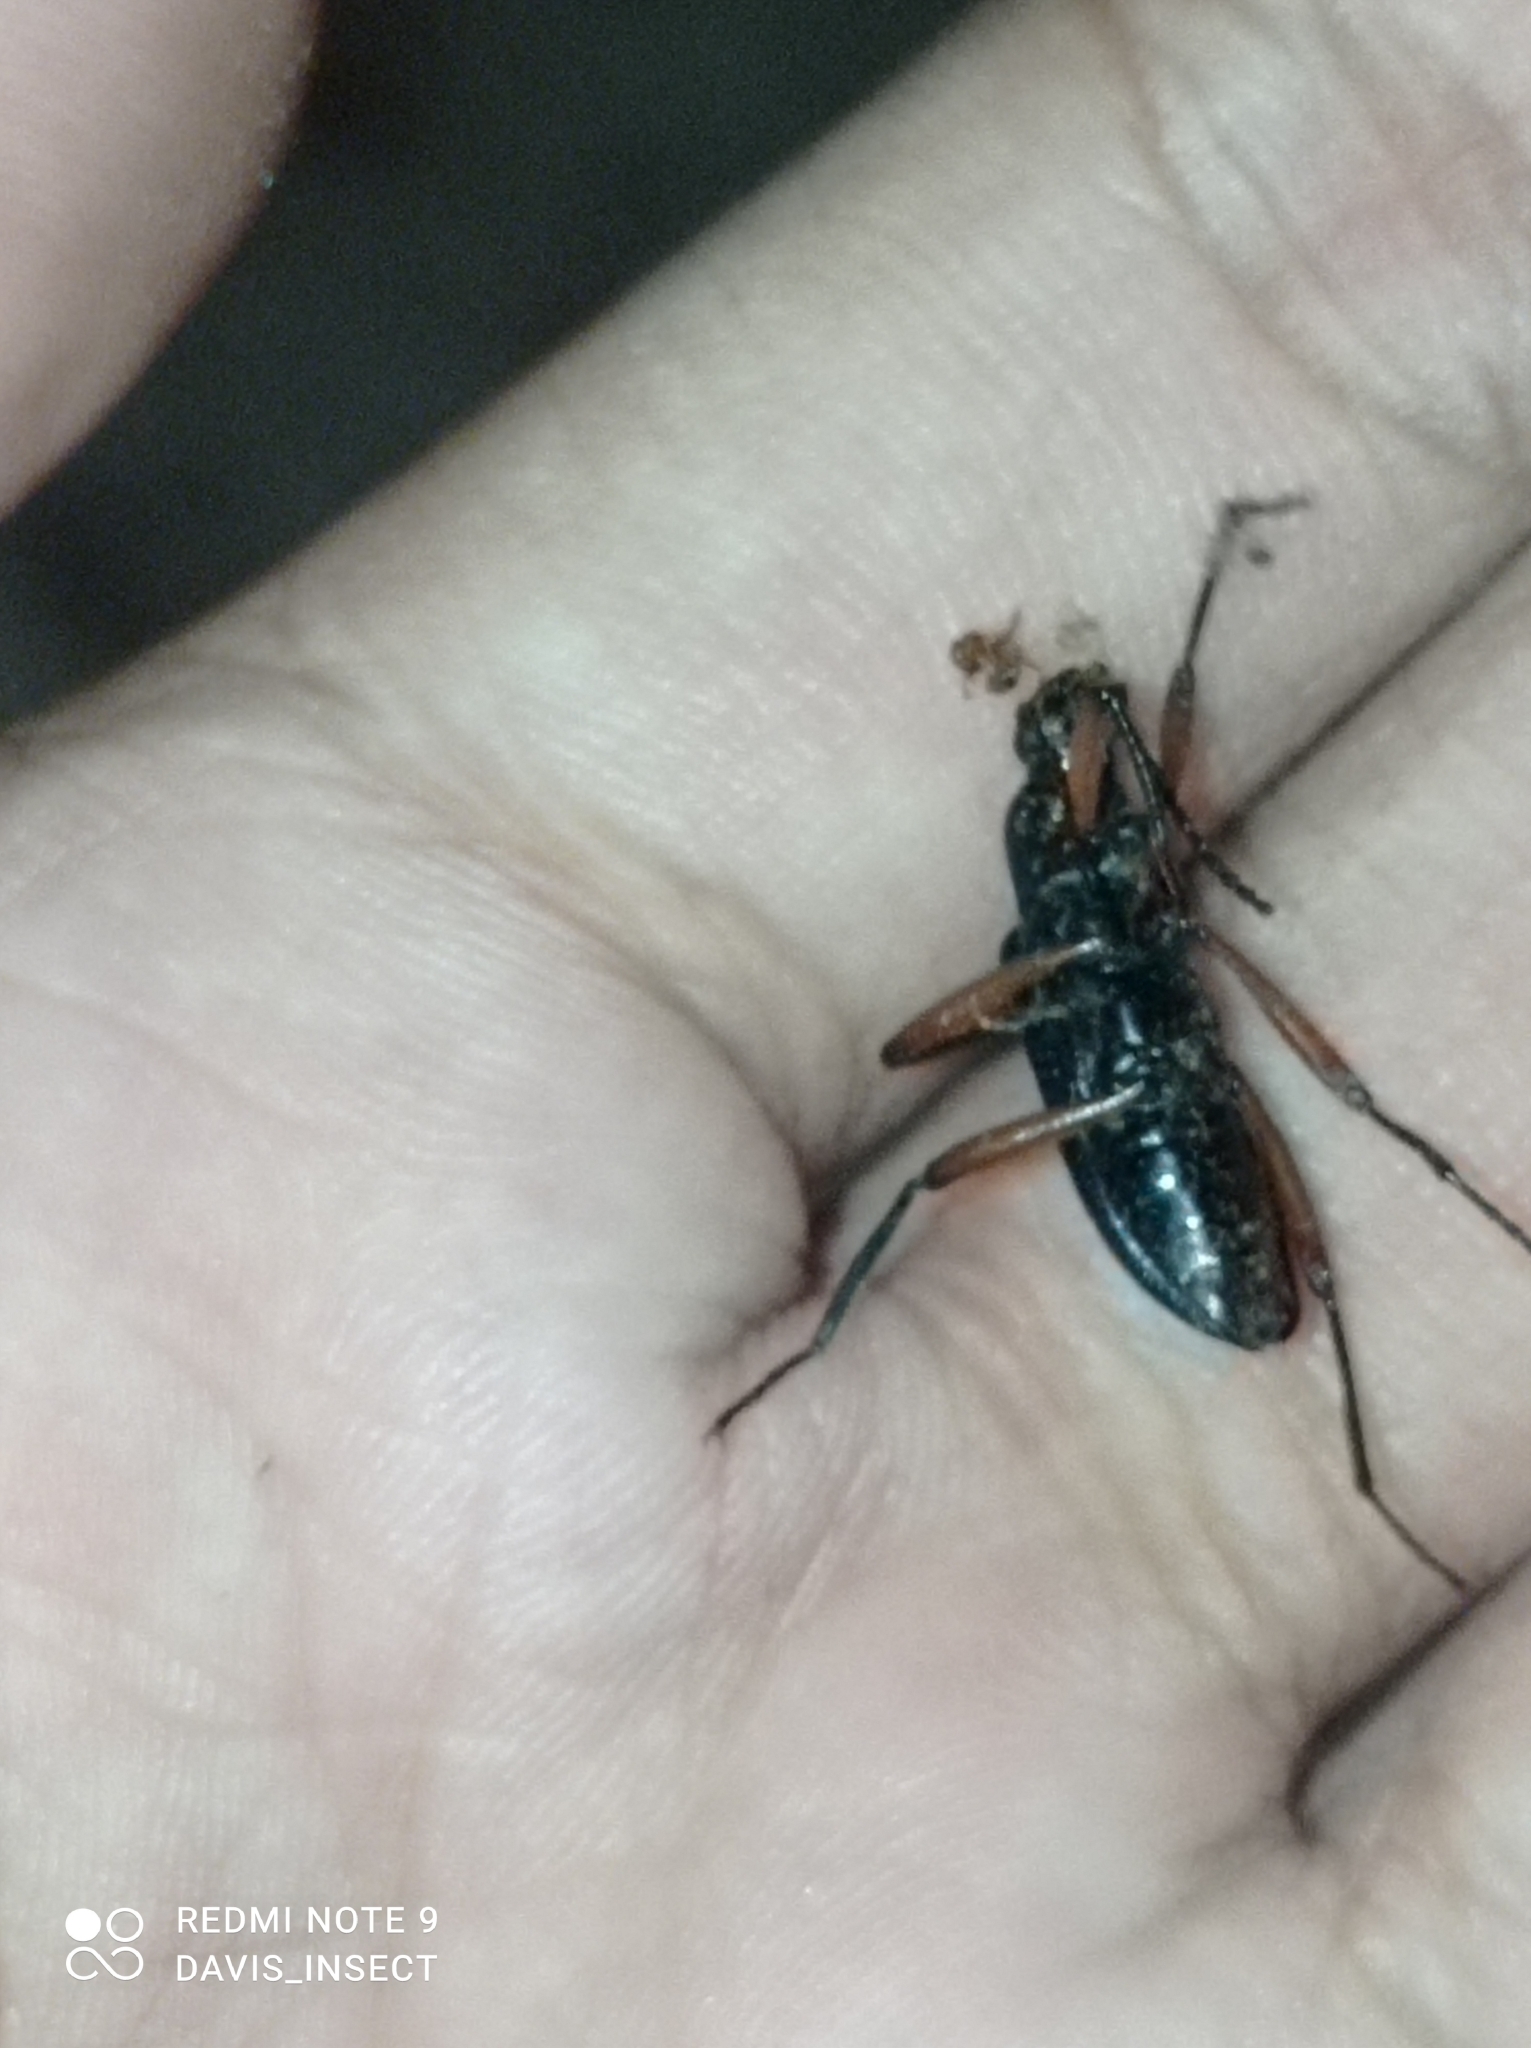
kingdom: Animalia
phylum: Arthropoda
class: Insecta
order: Coleoptera
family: Tenebrionidae
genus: Strongylium
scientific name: Strongylium erythrocephalum
